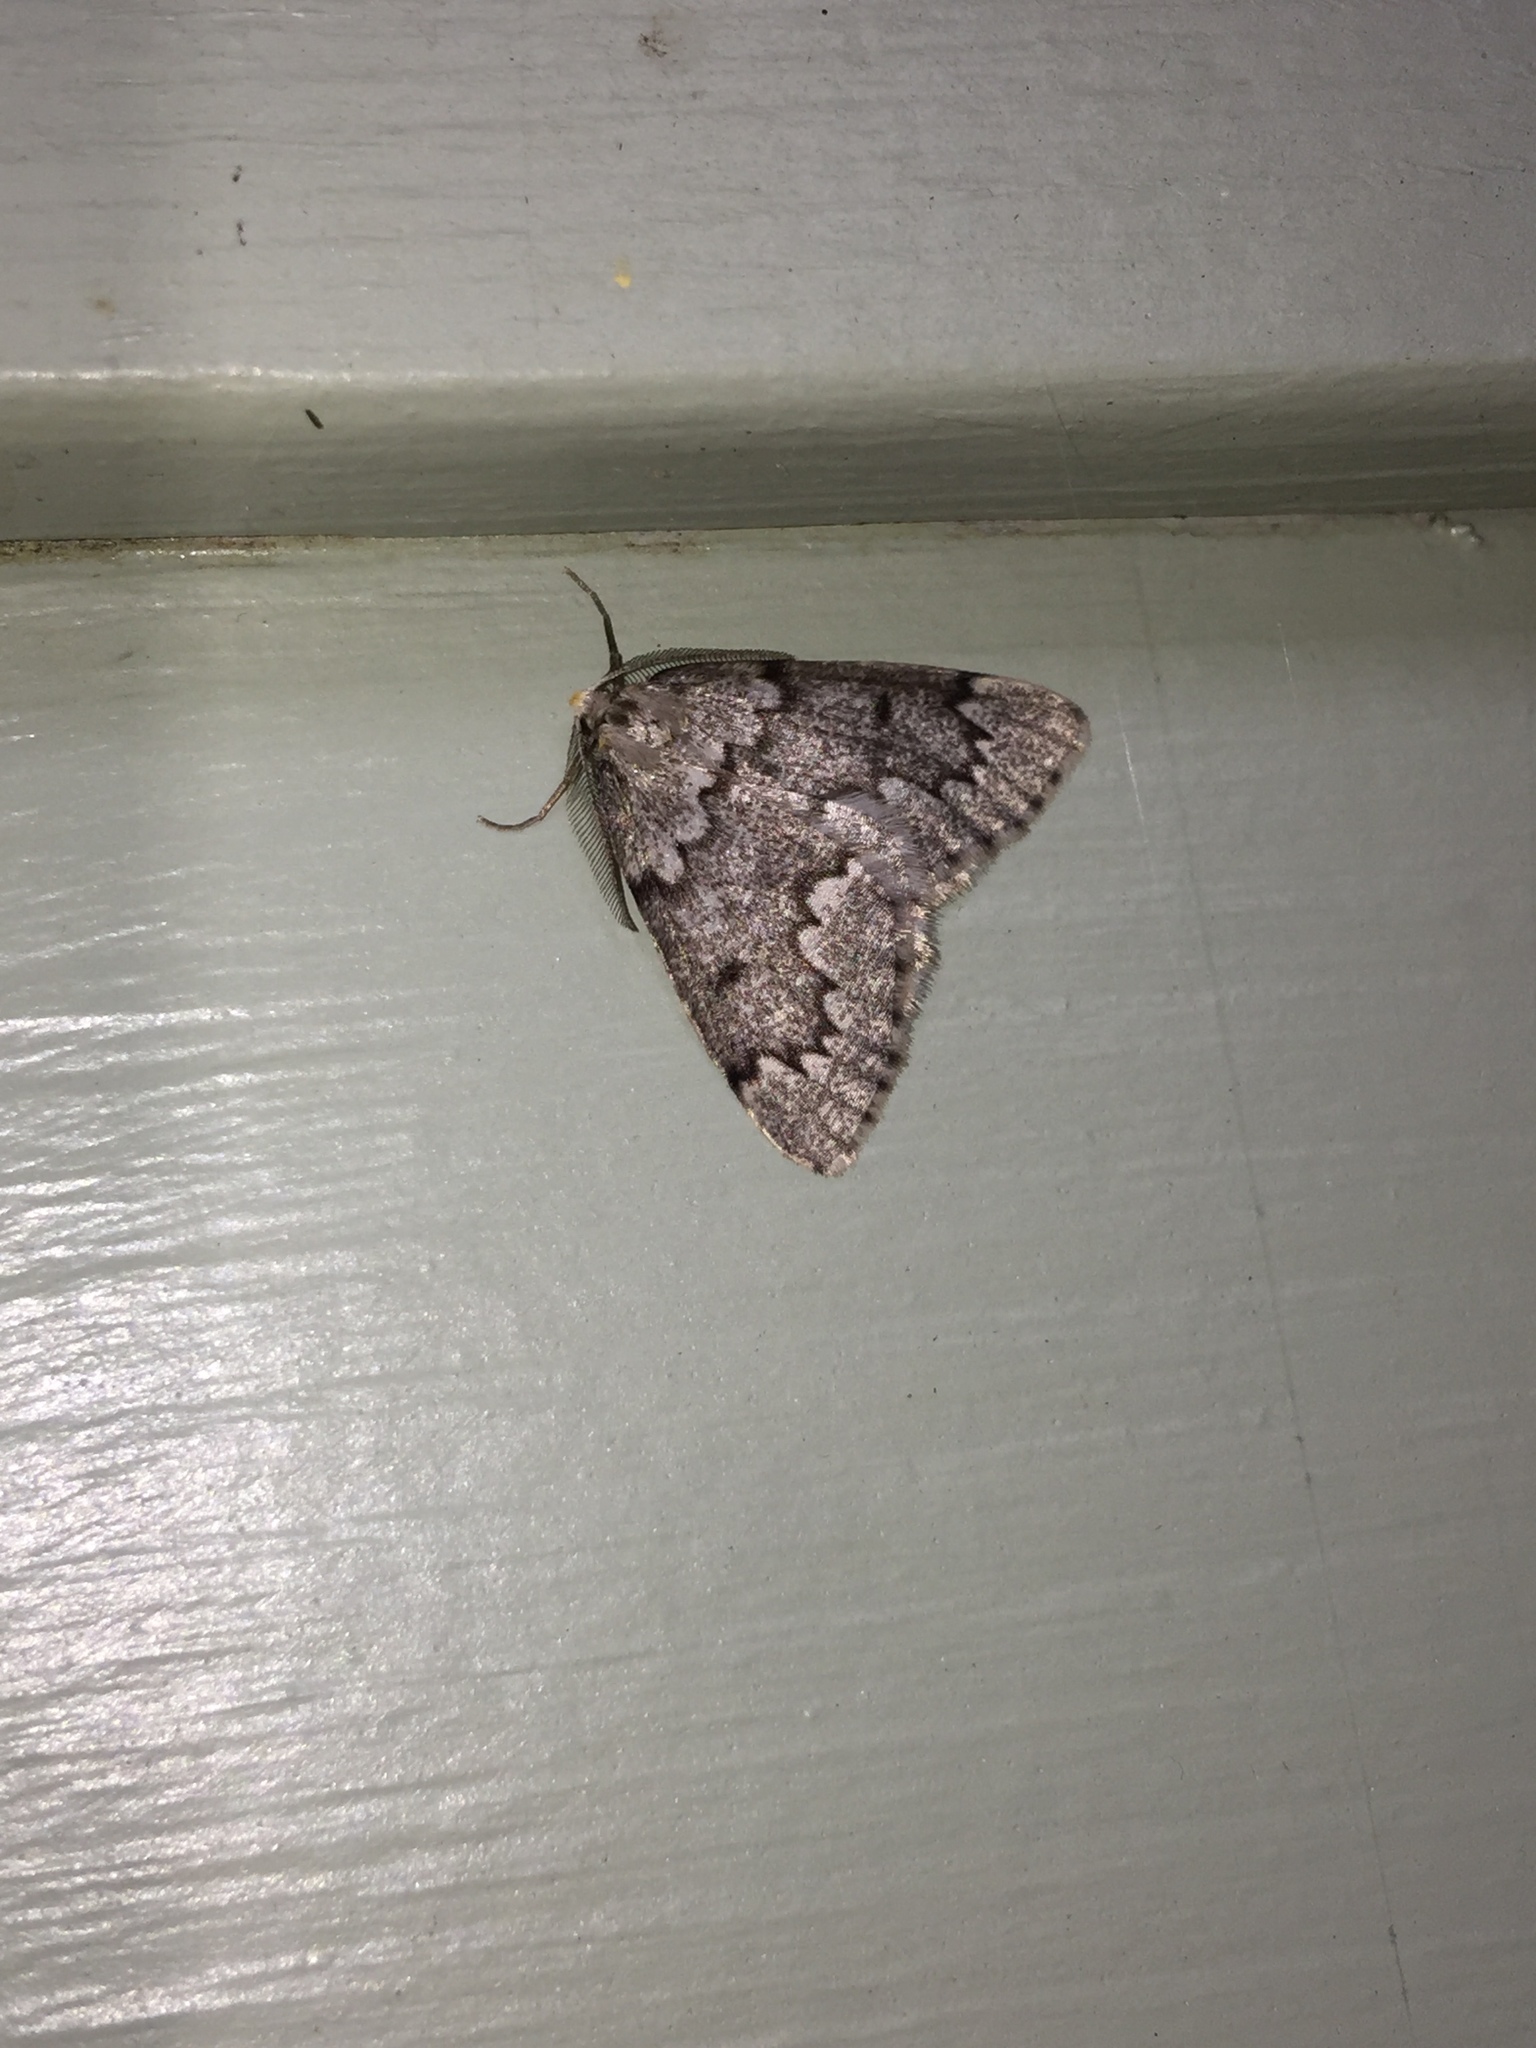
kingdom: Animalia
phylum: Arthropoda
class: Insecta
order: Lepidoptera
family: Geometridae
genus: Nepytia
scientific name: Nepytia canosaria
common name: False hemlock looper
